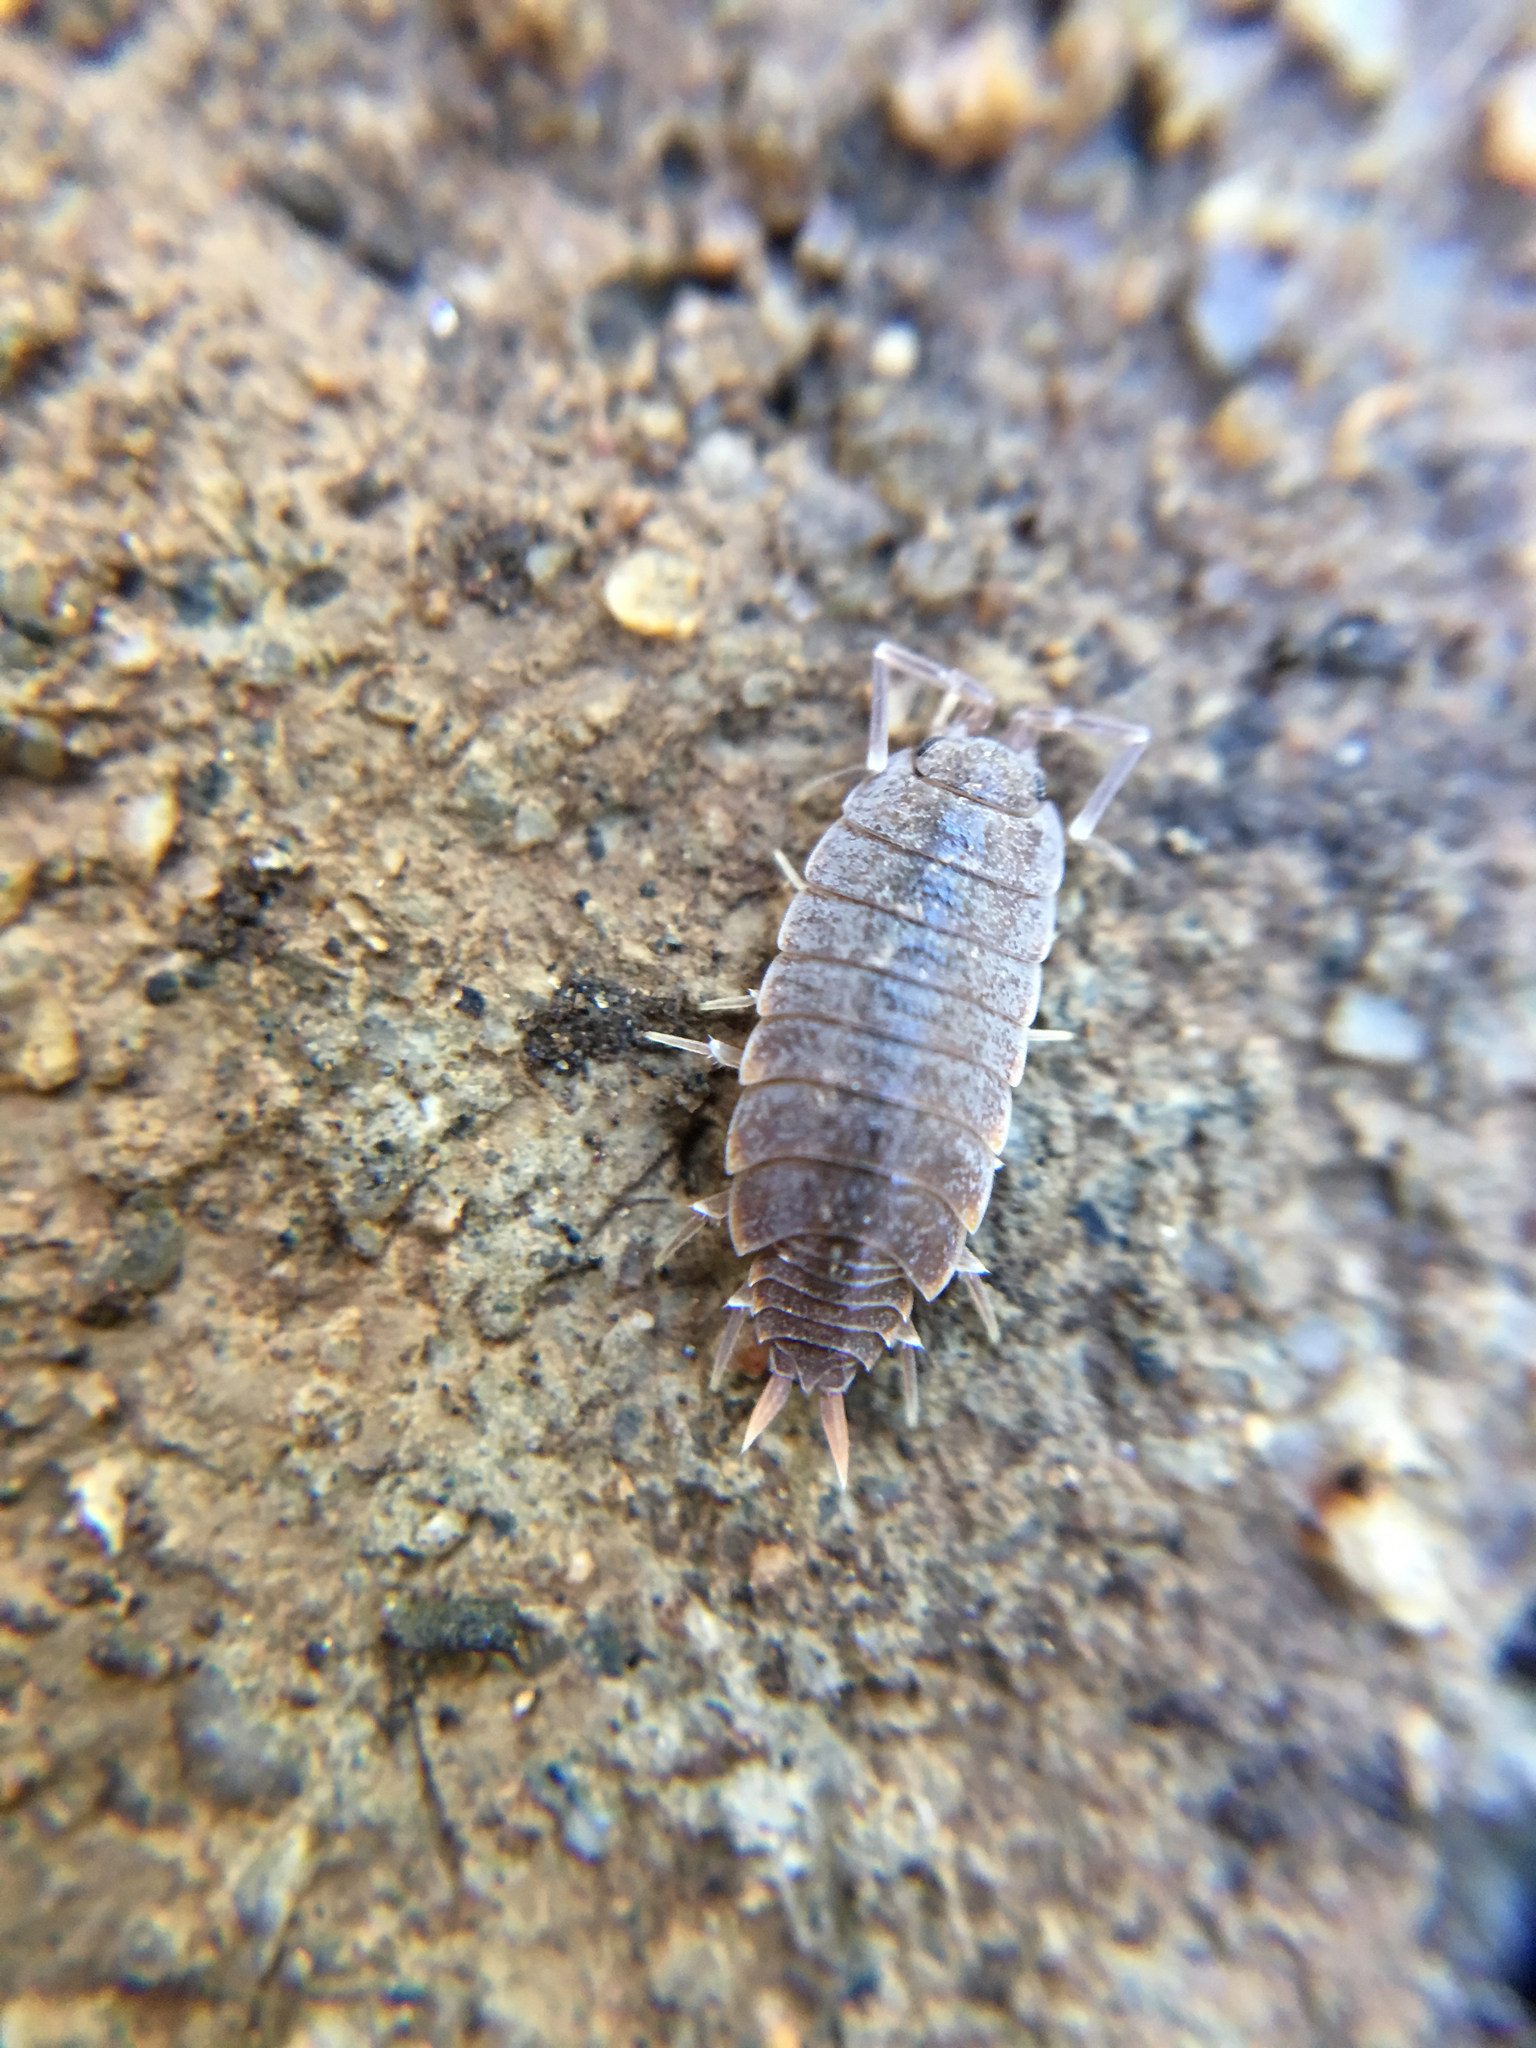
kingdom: Animalia
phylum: Arthropoda
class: Malacostraca
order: Isopoda
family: Armadillidiidae
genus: Armadillidium
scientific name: Armadillidium vulgare
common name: Common pill woodlouse
